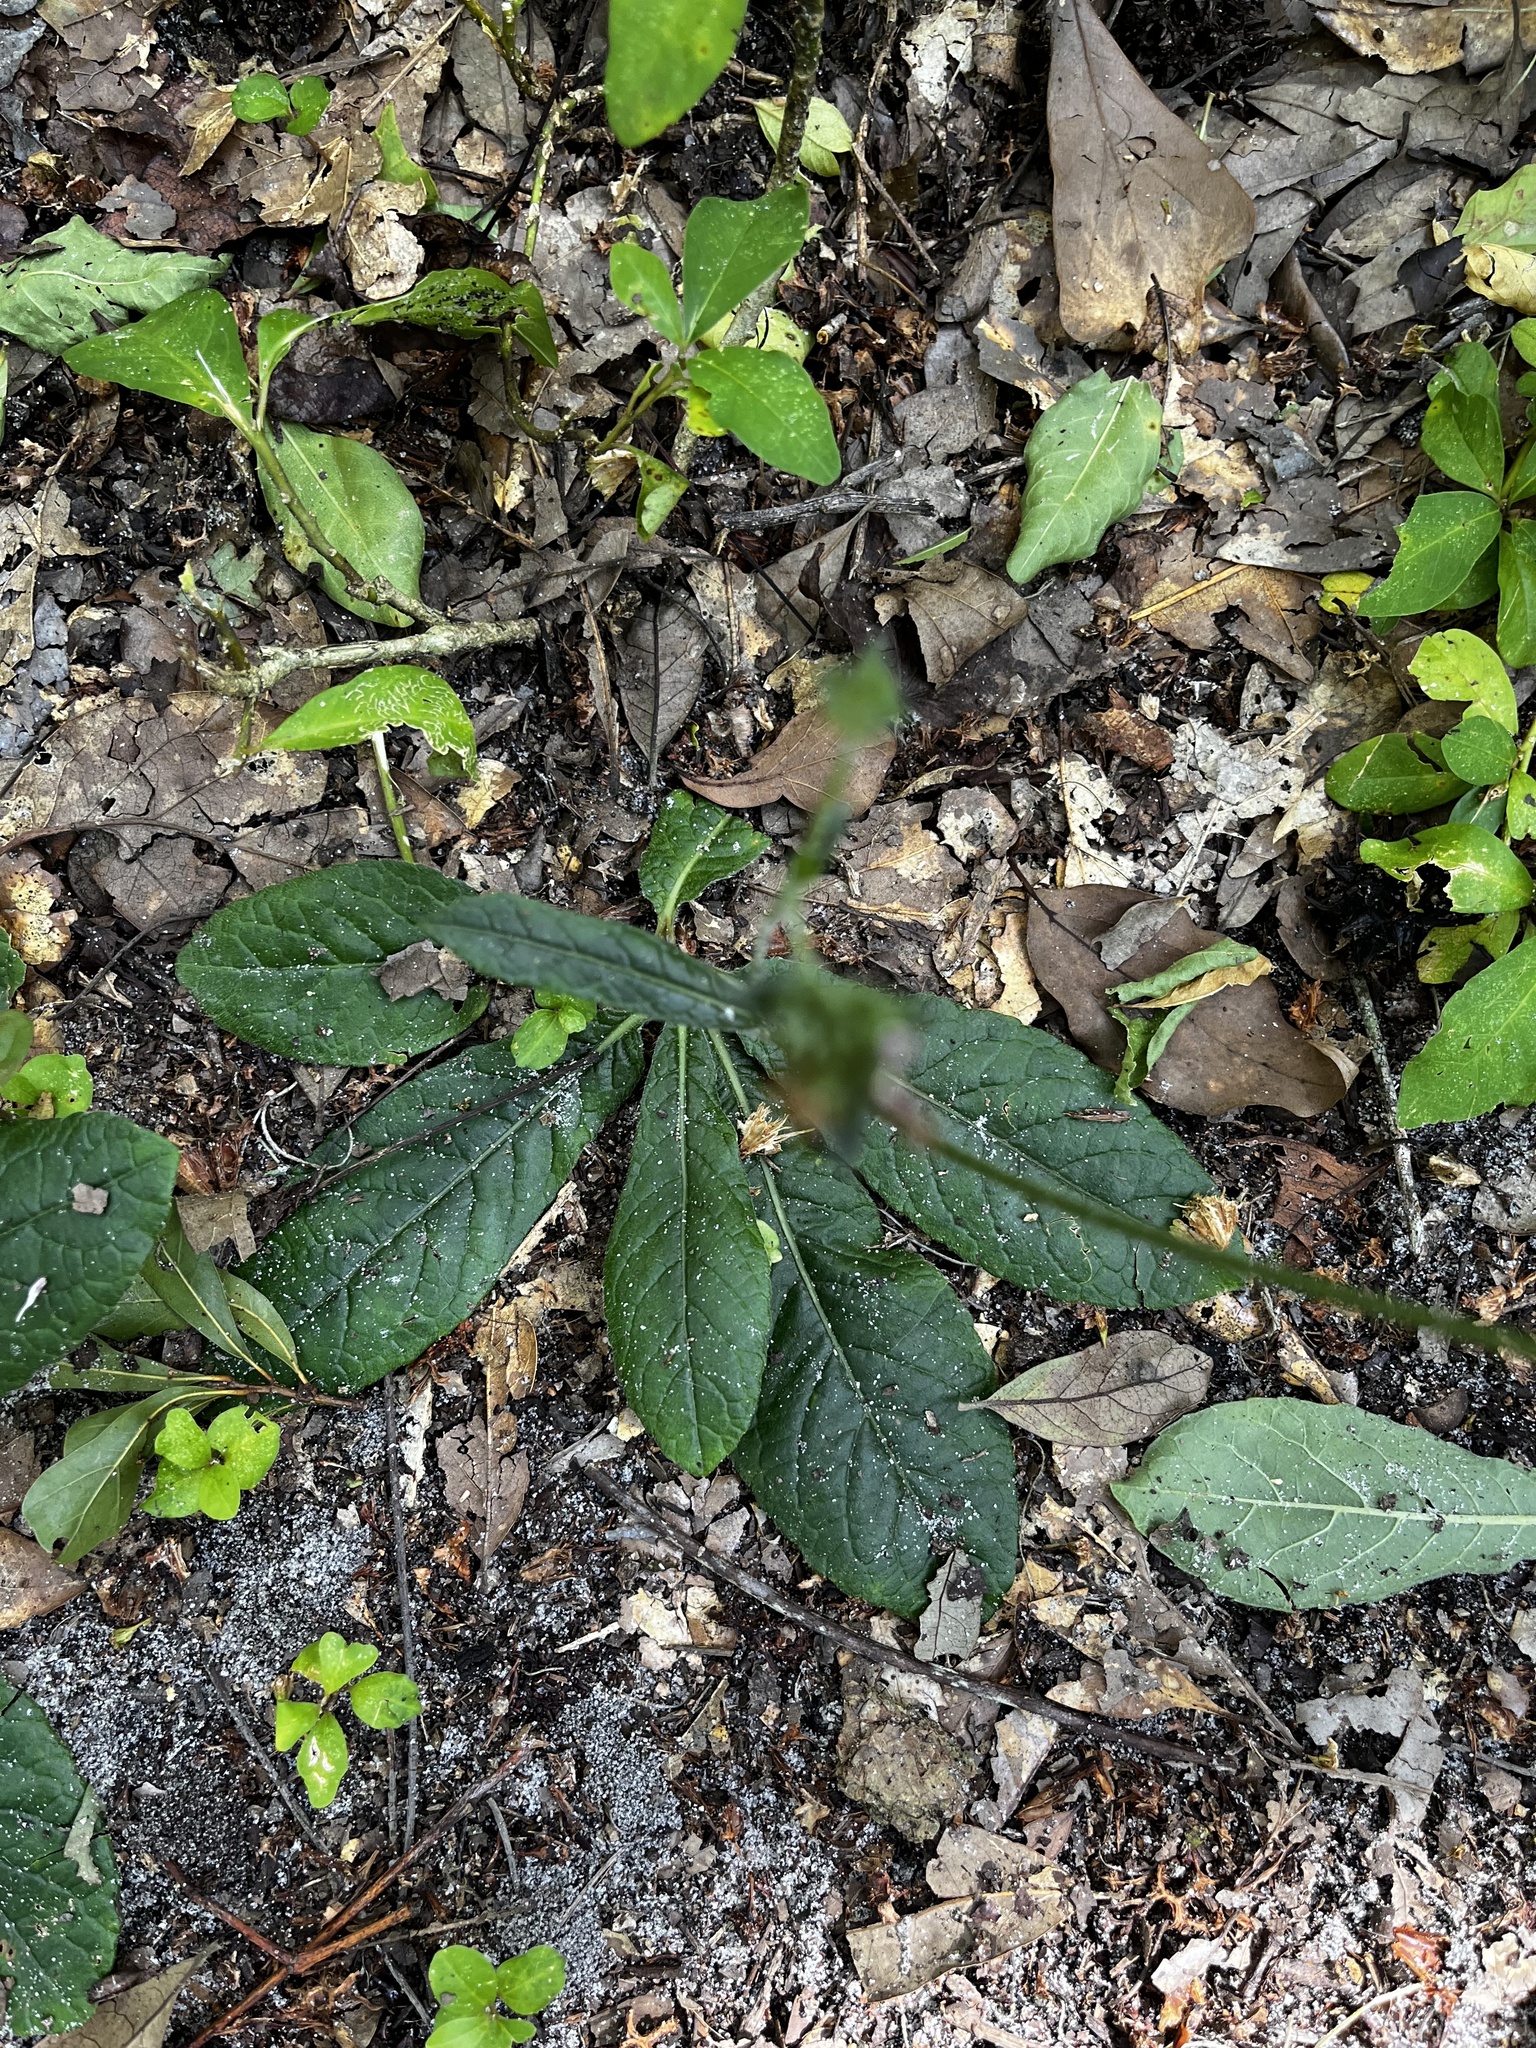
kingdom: Plantae
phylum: Tracheophyta
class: Magnoliopsida
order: Asterales
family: Asteraceae
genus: Elephantopus
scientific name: Elephantopus carolinianus
